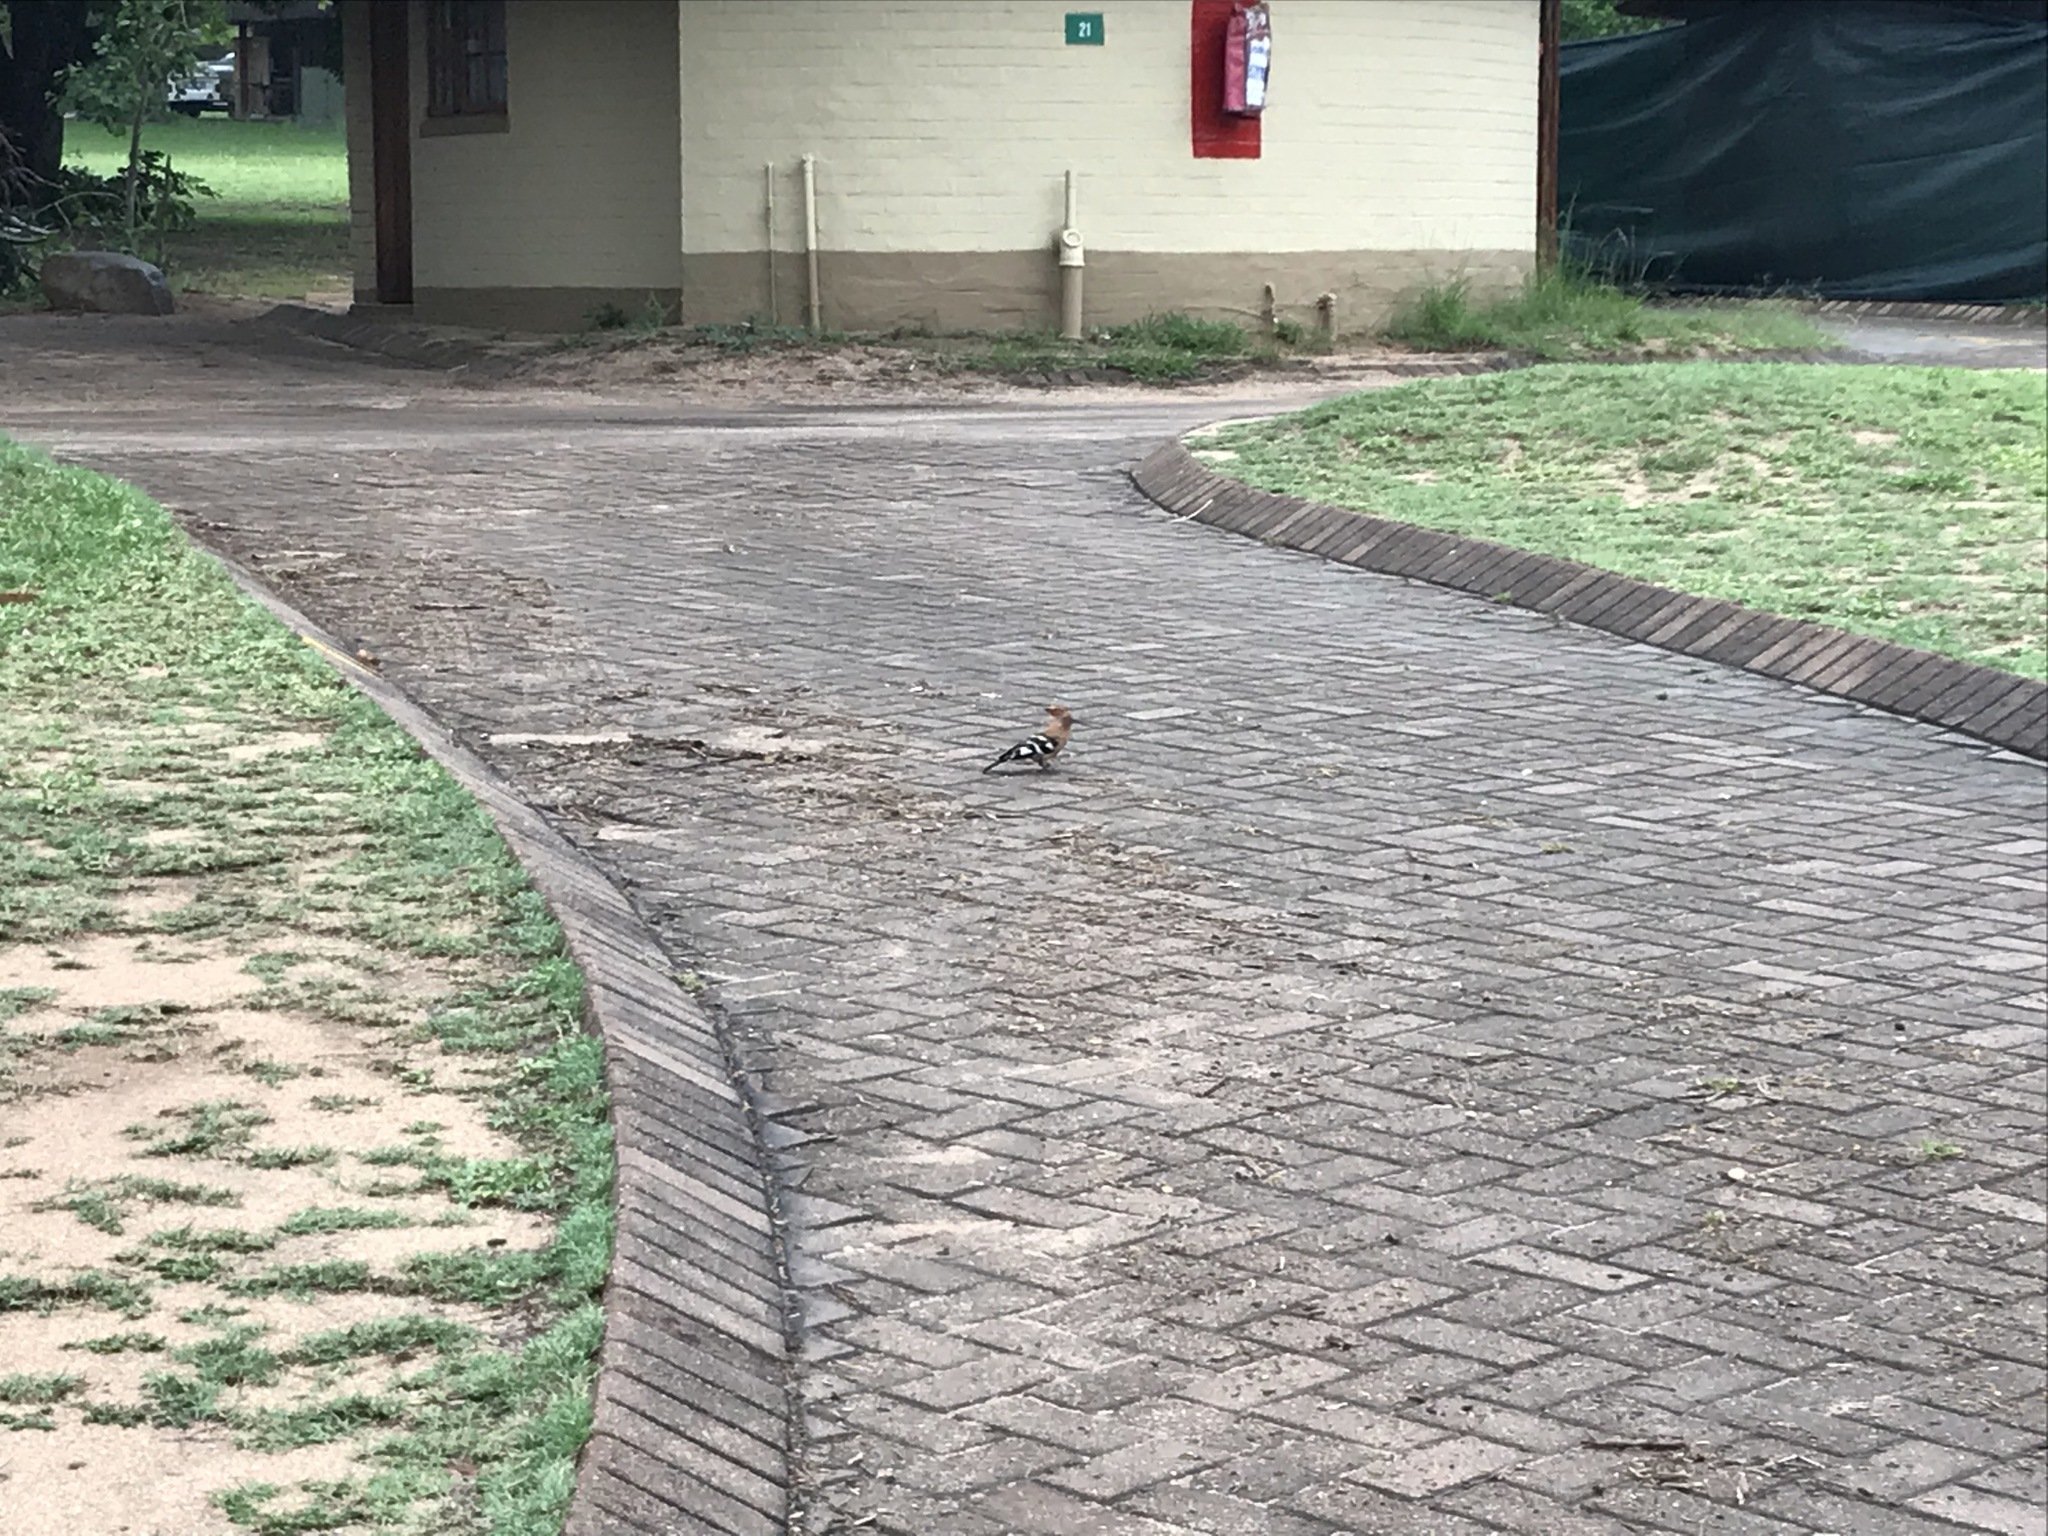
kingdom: Animalia
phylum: Chordata
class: Aves
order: Bucerotiformes
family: Upupidae
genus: Upupa
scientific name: Upupa africana
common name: African hoopoe
